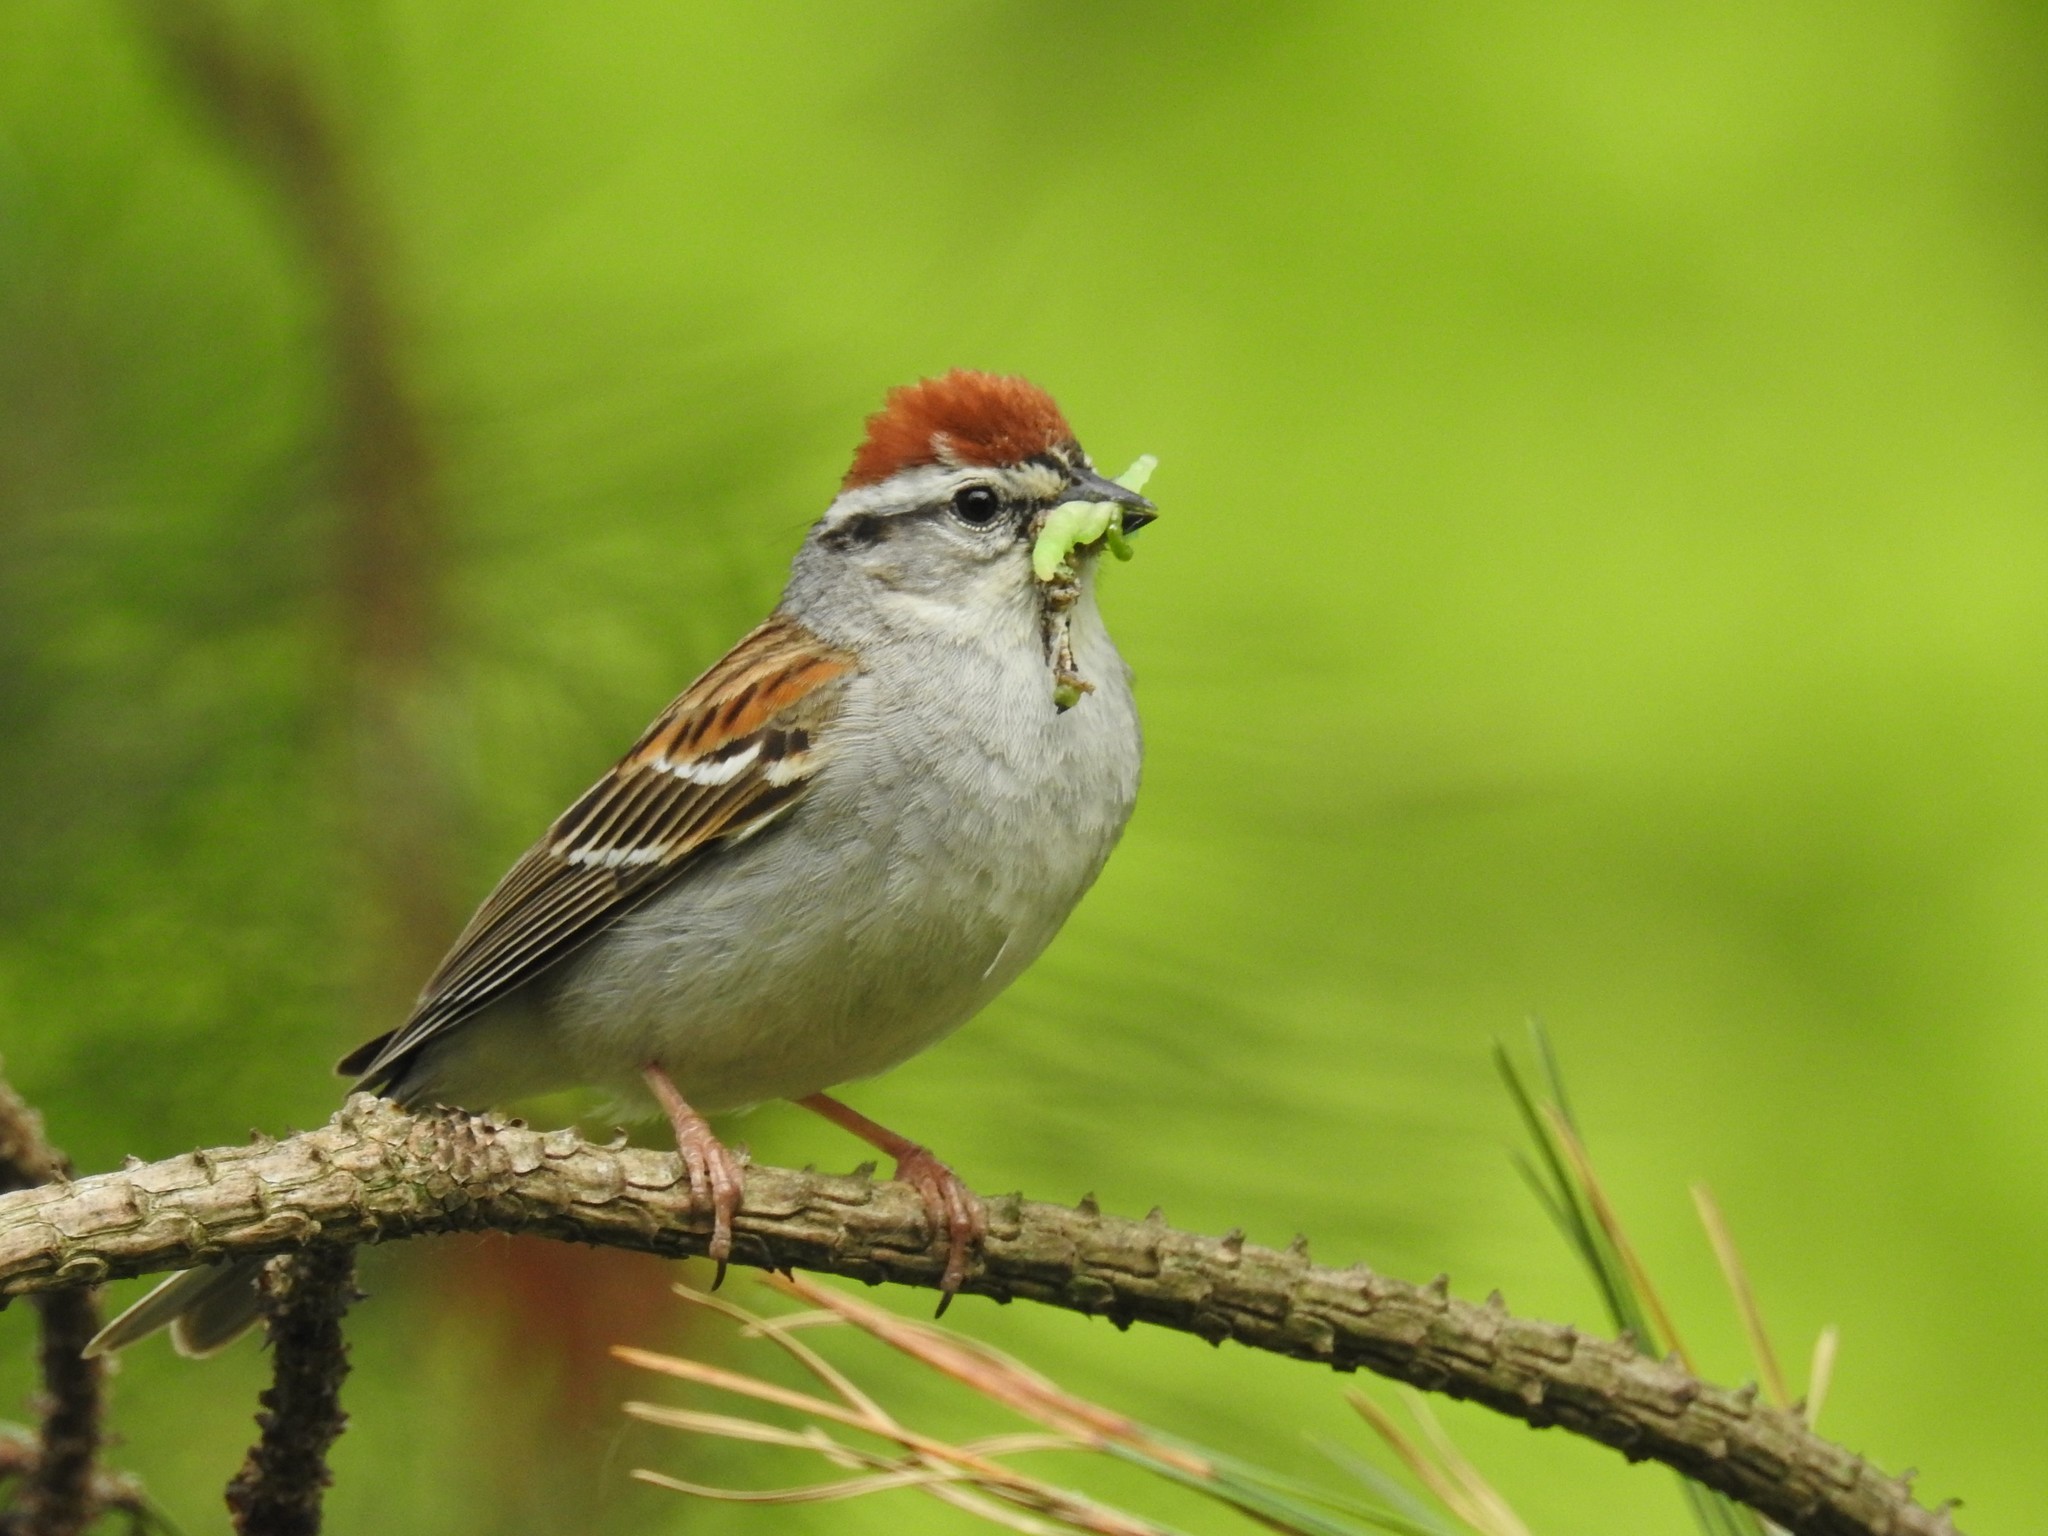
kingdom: Animalia
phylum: Chordata
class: Aves
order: Passeriformes
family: Passerellidae
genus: Spizella
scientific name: Spizella passerina
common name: Chipping sparrow
